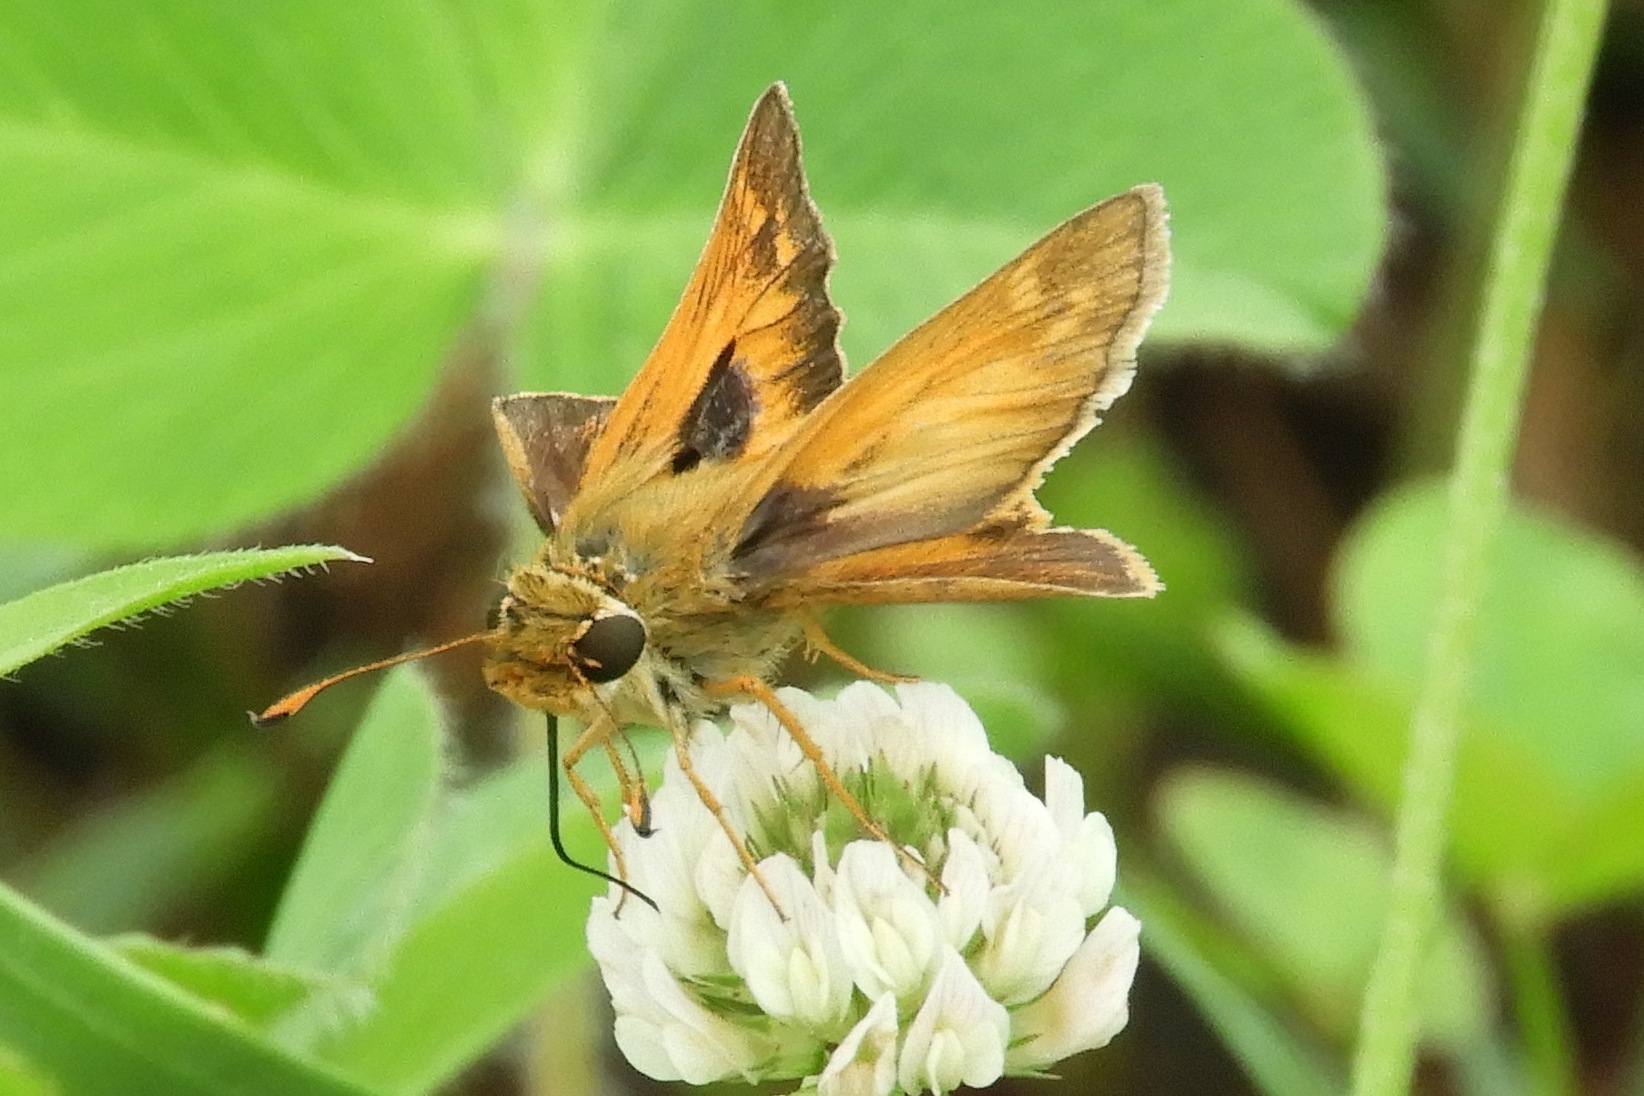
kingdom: Animalia
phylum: Arthropoda
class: Insecta
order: Lepidoptera
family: Hesperiidae
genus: Atalopedes
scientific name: Atalopedes
